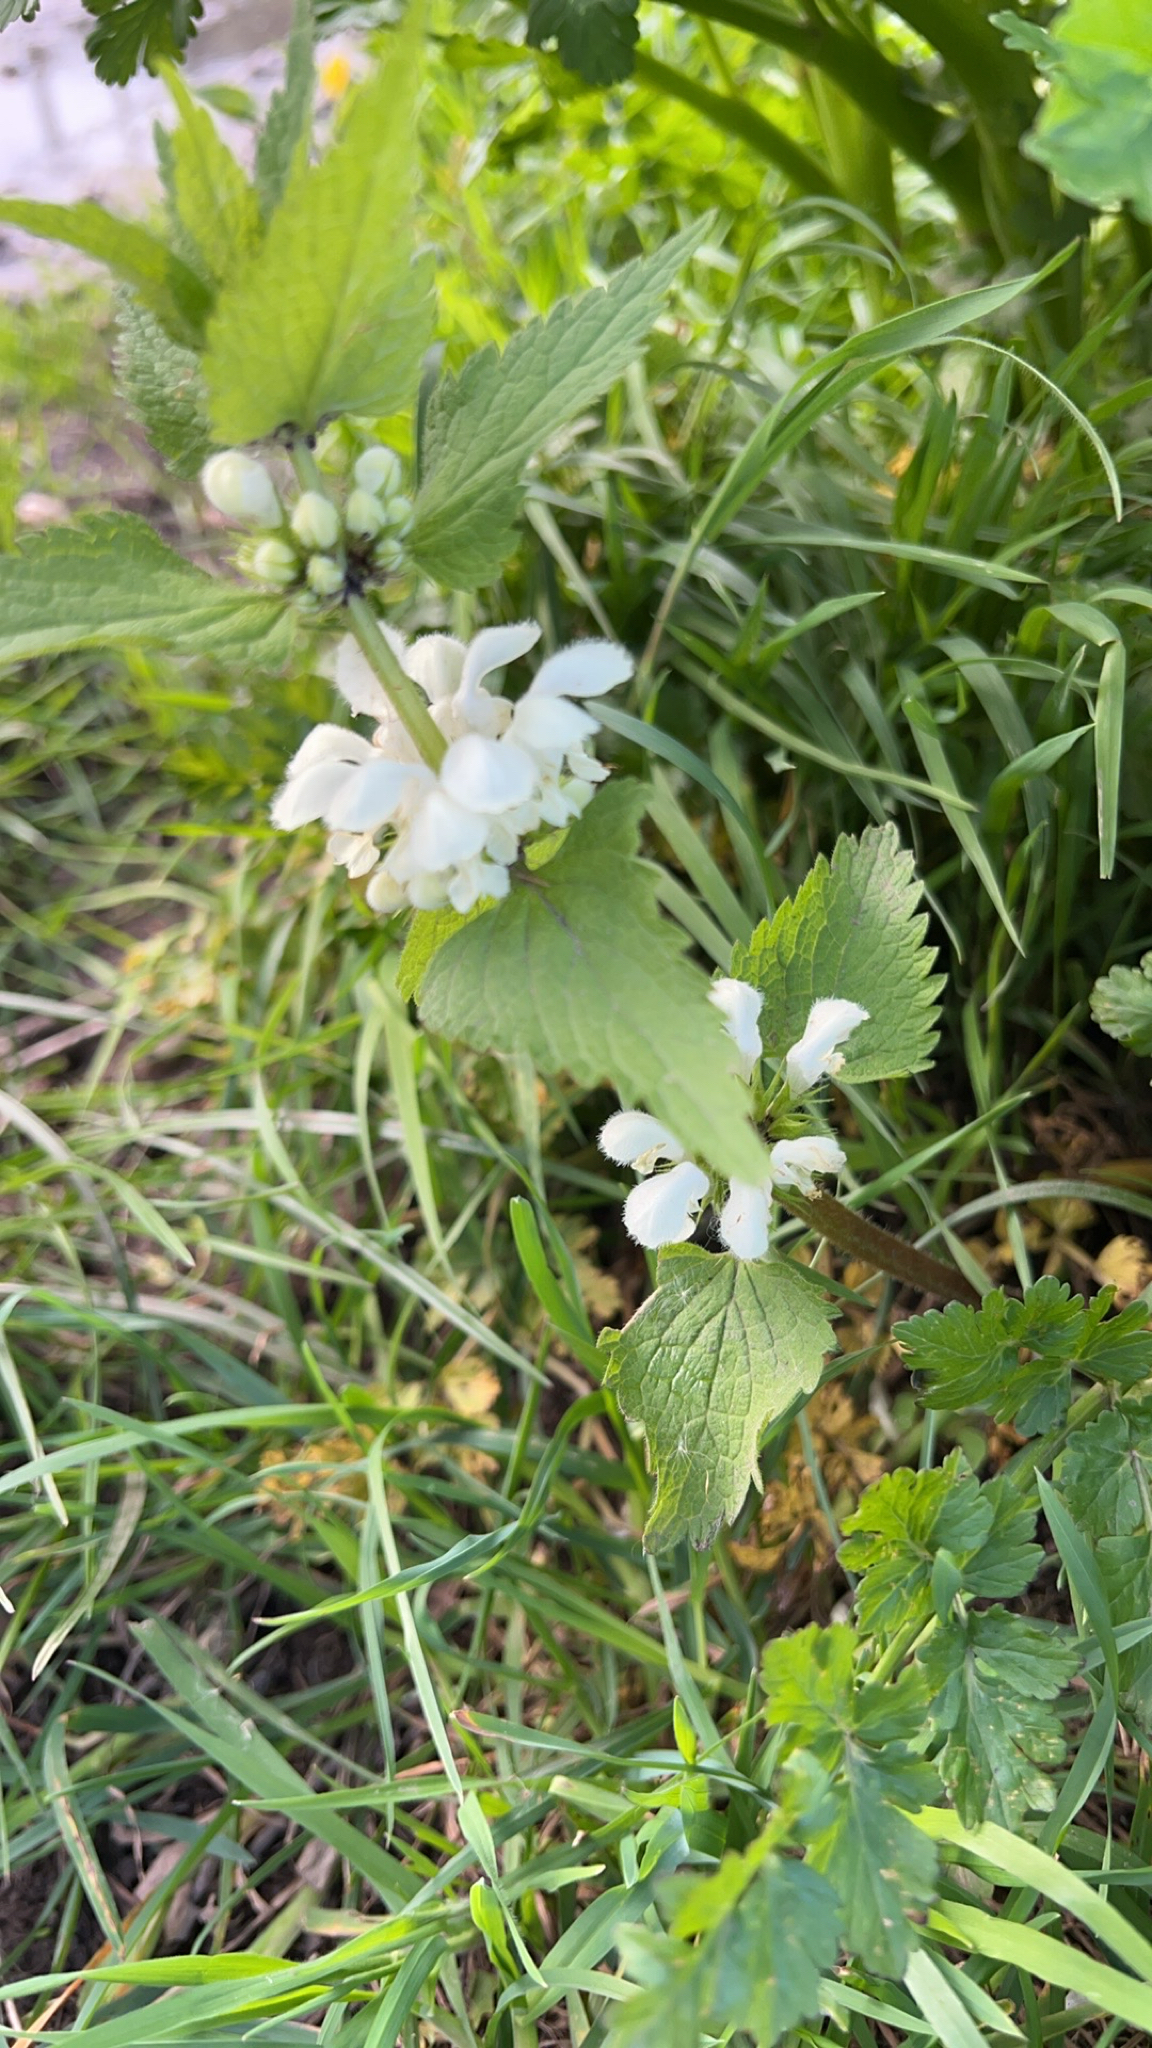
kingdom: Plantae
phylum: Tracheophyta
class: Magnoliopsida
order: Lamiales
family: Lamiaceae
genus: Lamium
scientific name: Lamium album
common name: White dead-nettle
